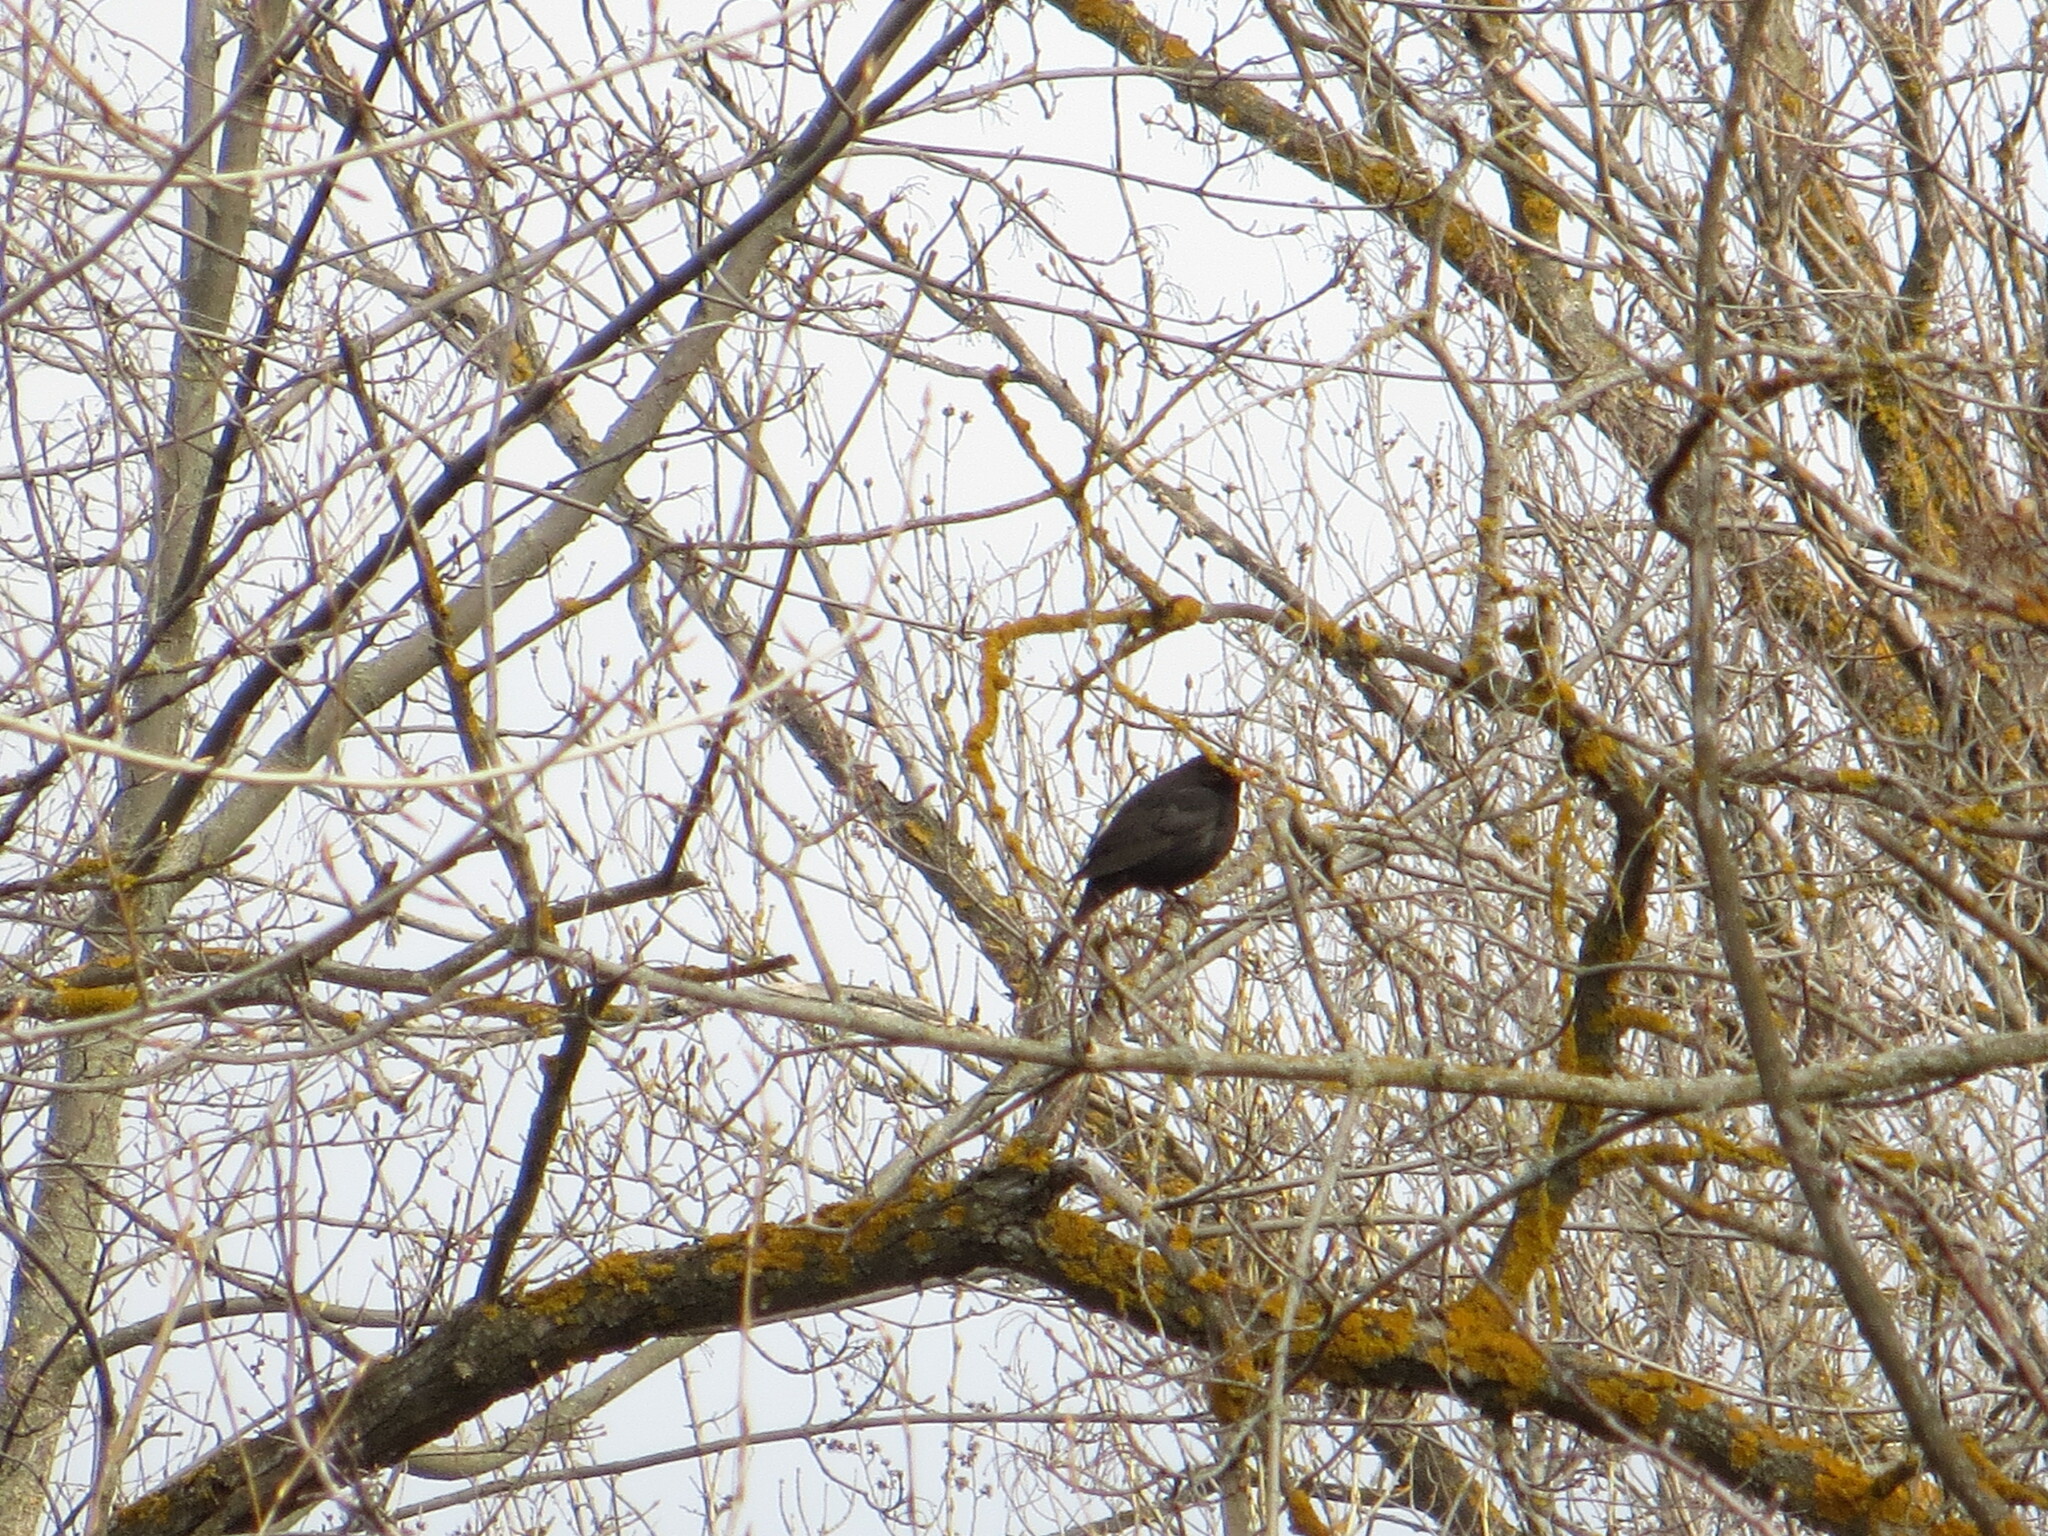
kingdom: Animalia
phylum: Chordata
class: Aves
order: Passeriformes
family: Turdidae
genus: Turdus
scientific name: Turdus merula
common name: Common blackbird
